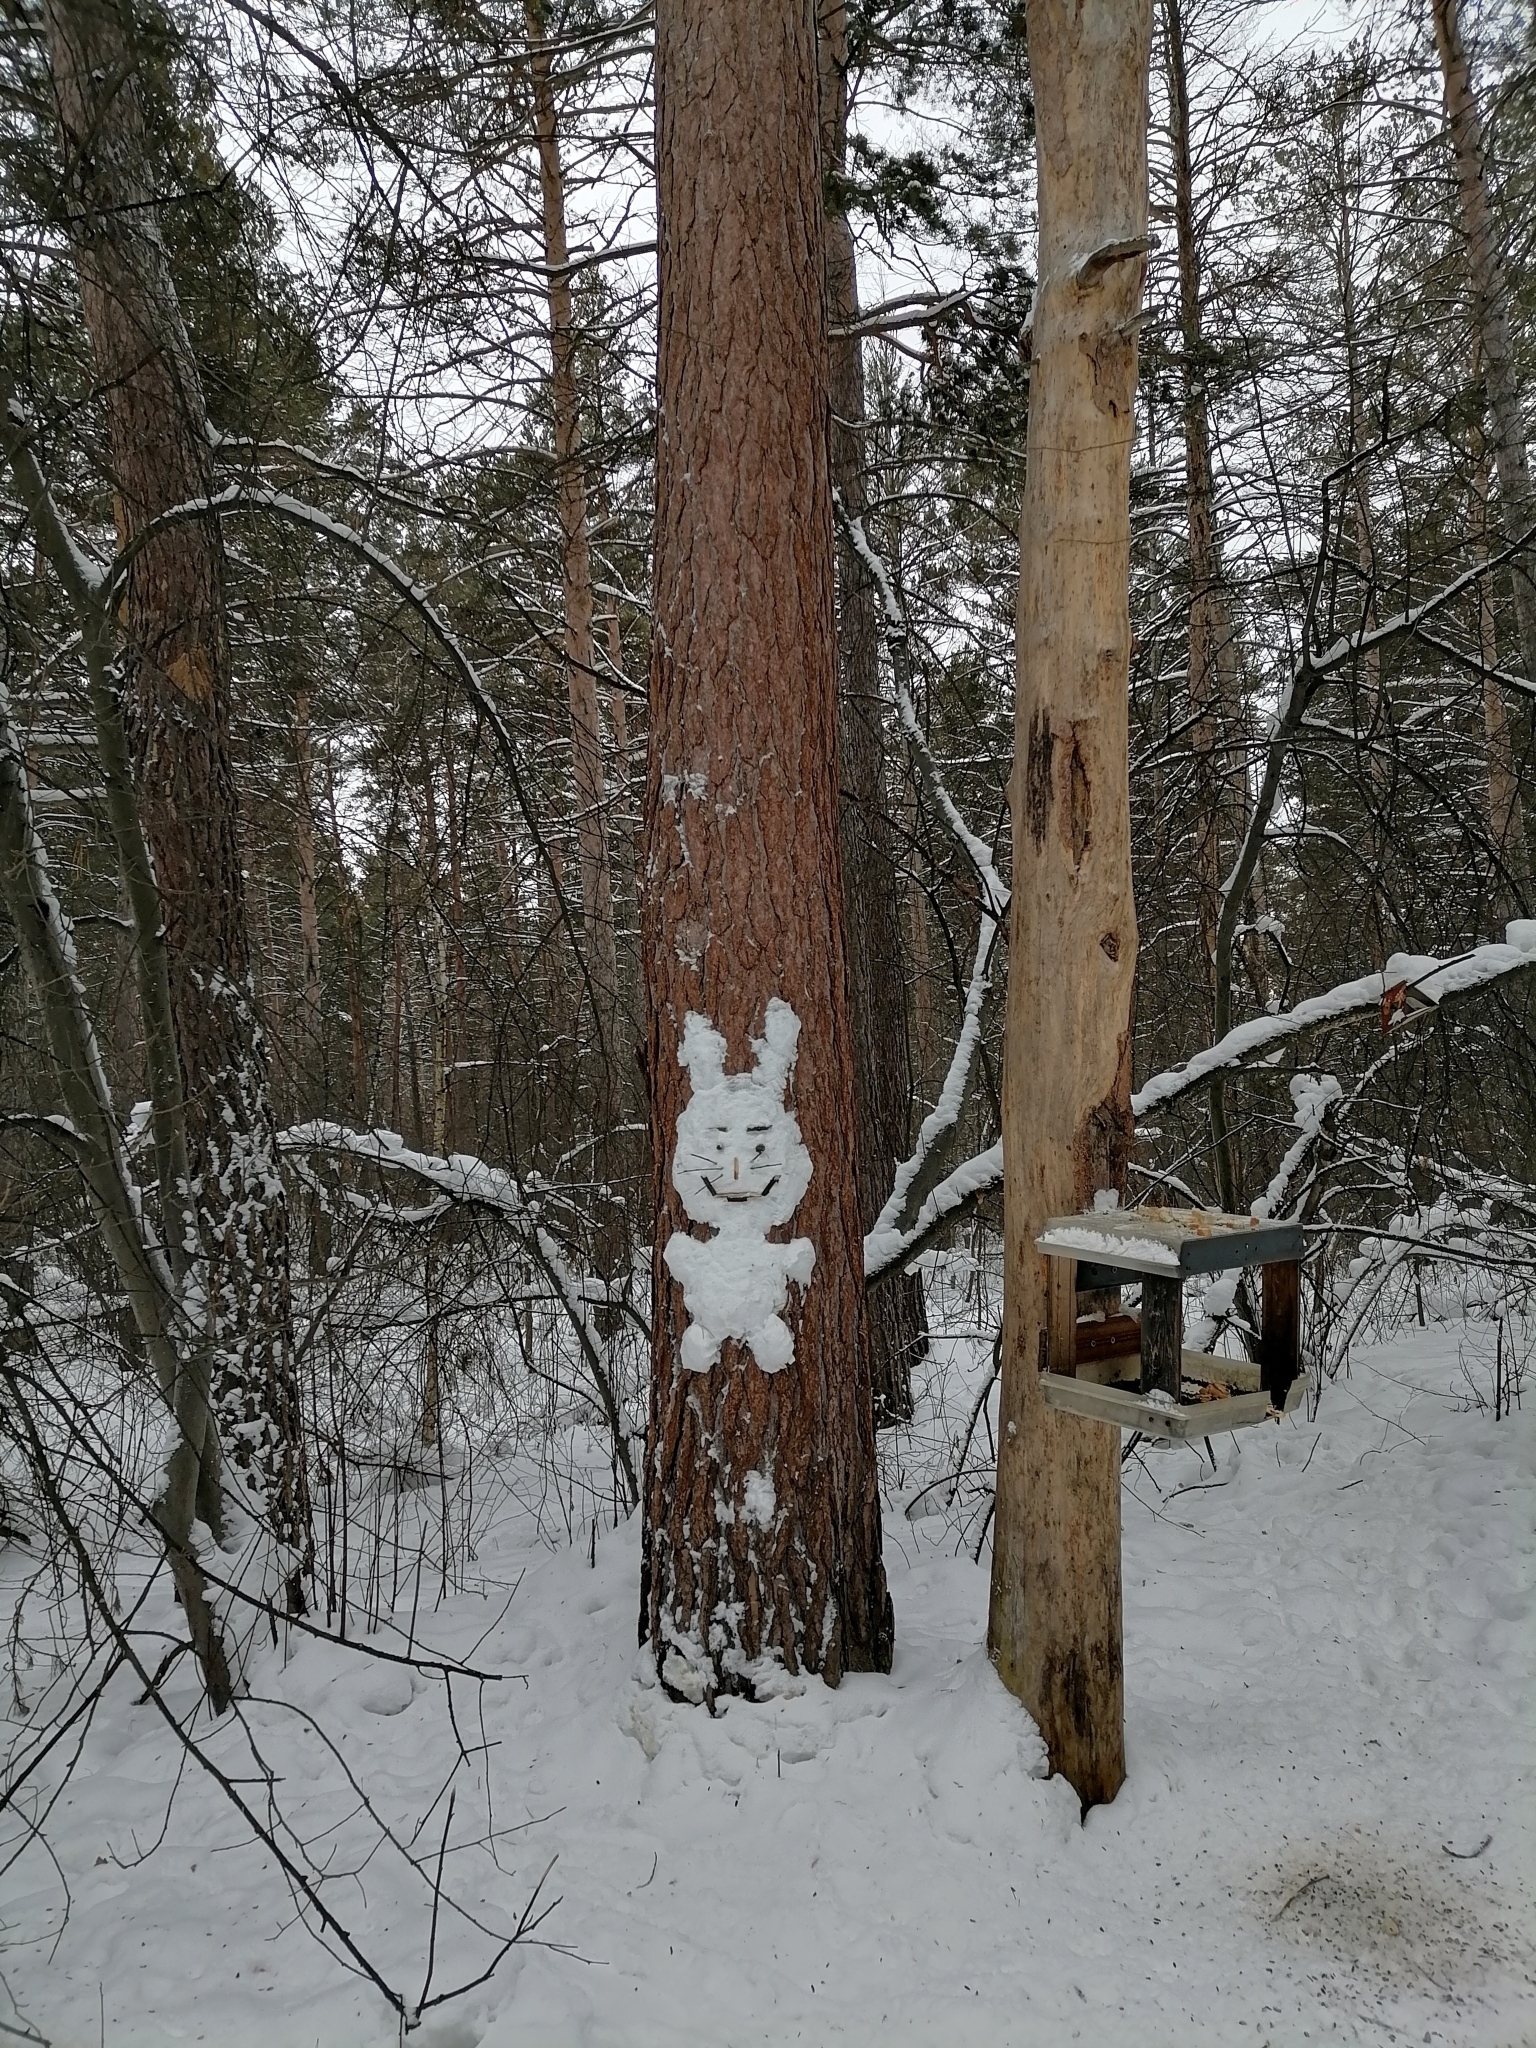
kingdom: Plantae
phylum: Tracheophyta
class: Pinopsida
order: Pinales
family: Pinaceae
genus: Pinus
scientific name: Pinus sylvestris
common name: Scots pine
